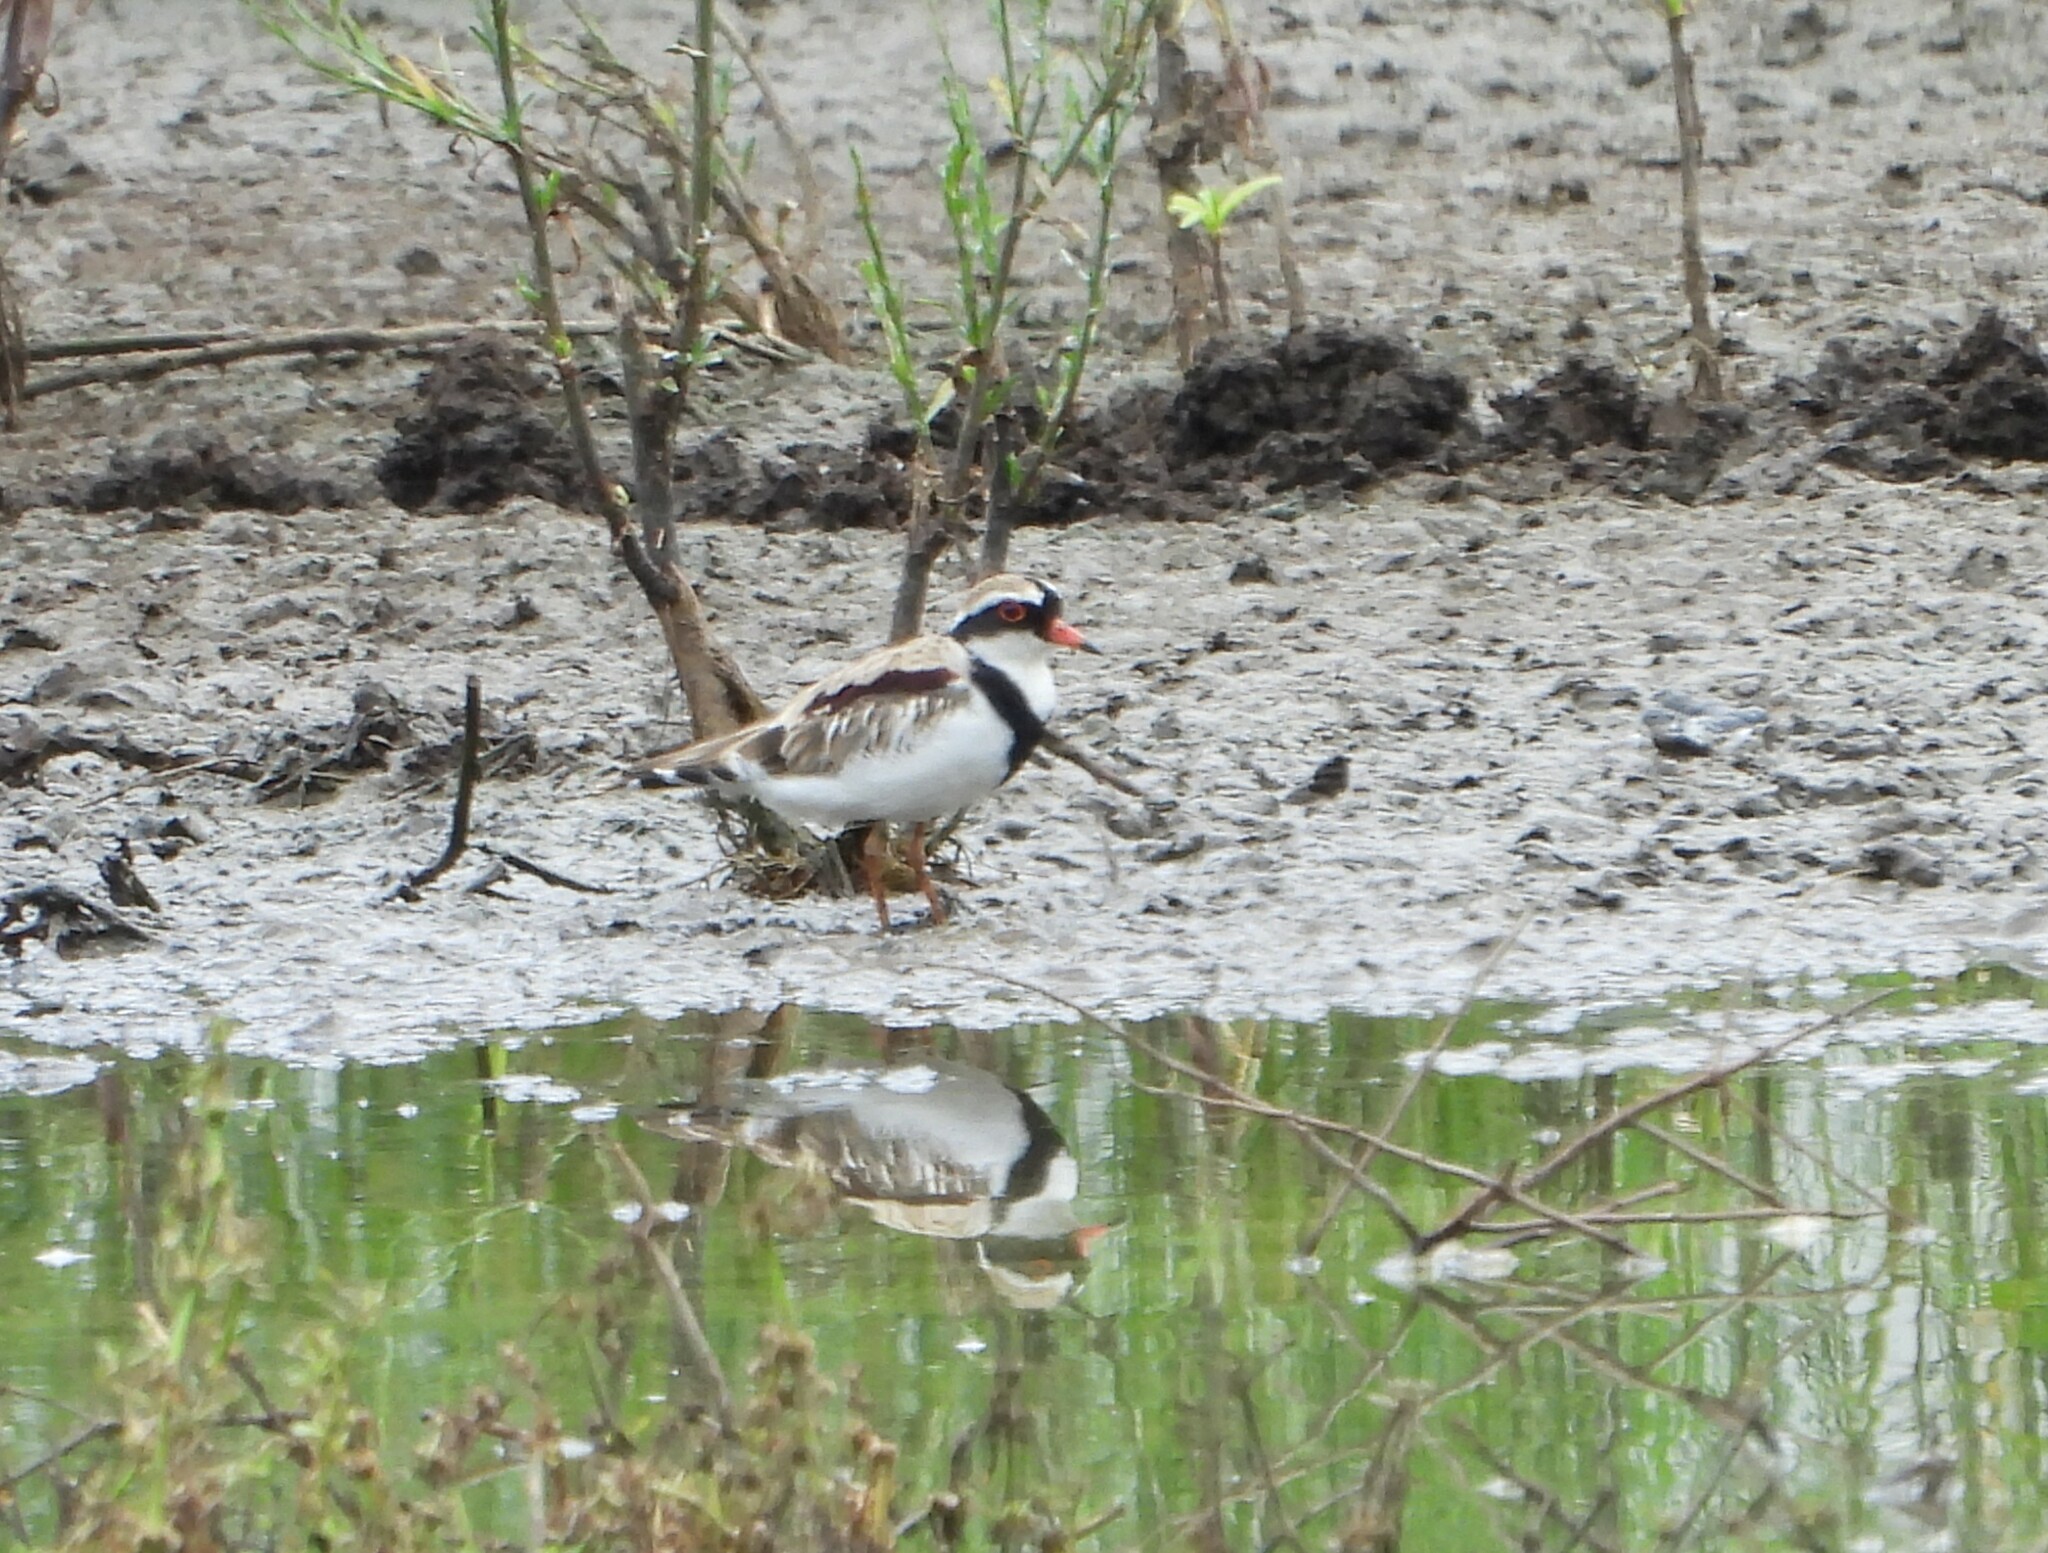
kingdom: Animalia
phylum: Chordata
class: Aves
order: Charadriiformes
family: Charadriidae
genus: Elseyornis
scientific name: Elseyornis melanops
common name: Black-fronted dotterel
